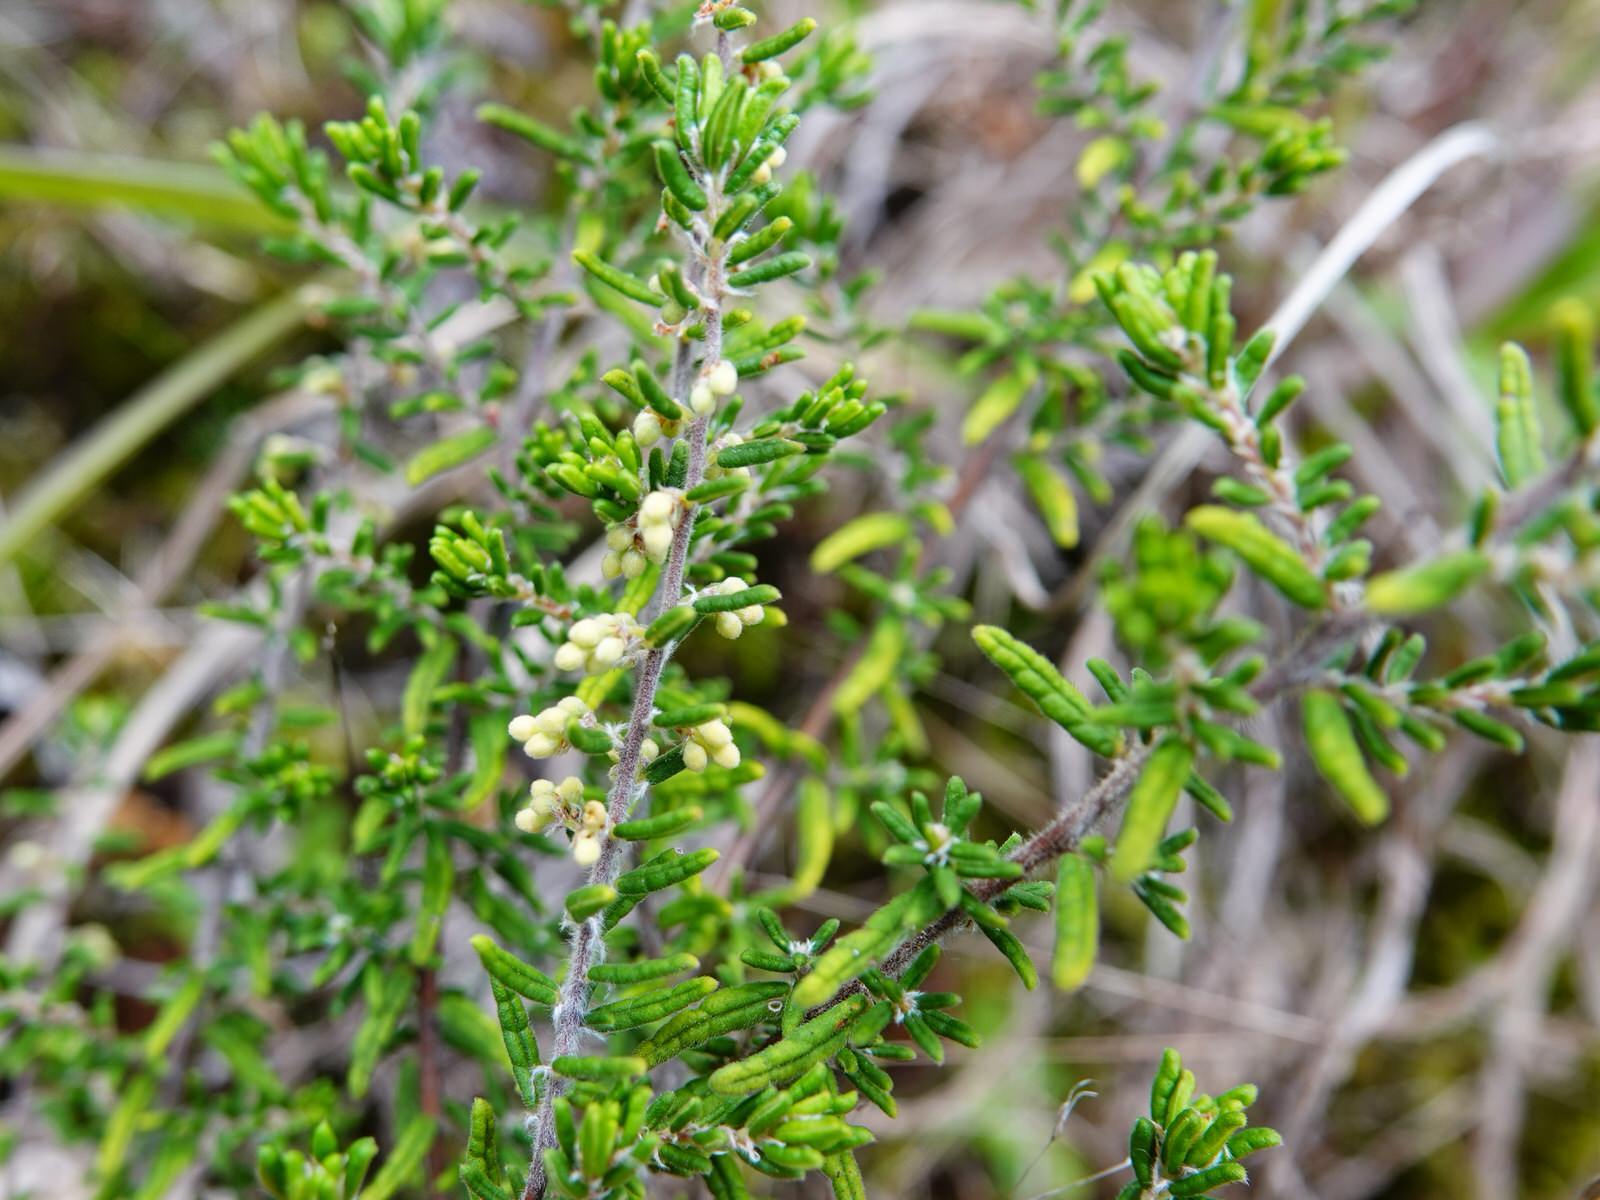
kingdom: Plantae
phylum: Tracheophyta
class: Magnoliopsida
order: Rosales
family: Rhamnaceae
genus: Pomaderris
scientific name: Pomaderris amoena
